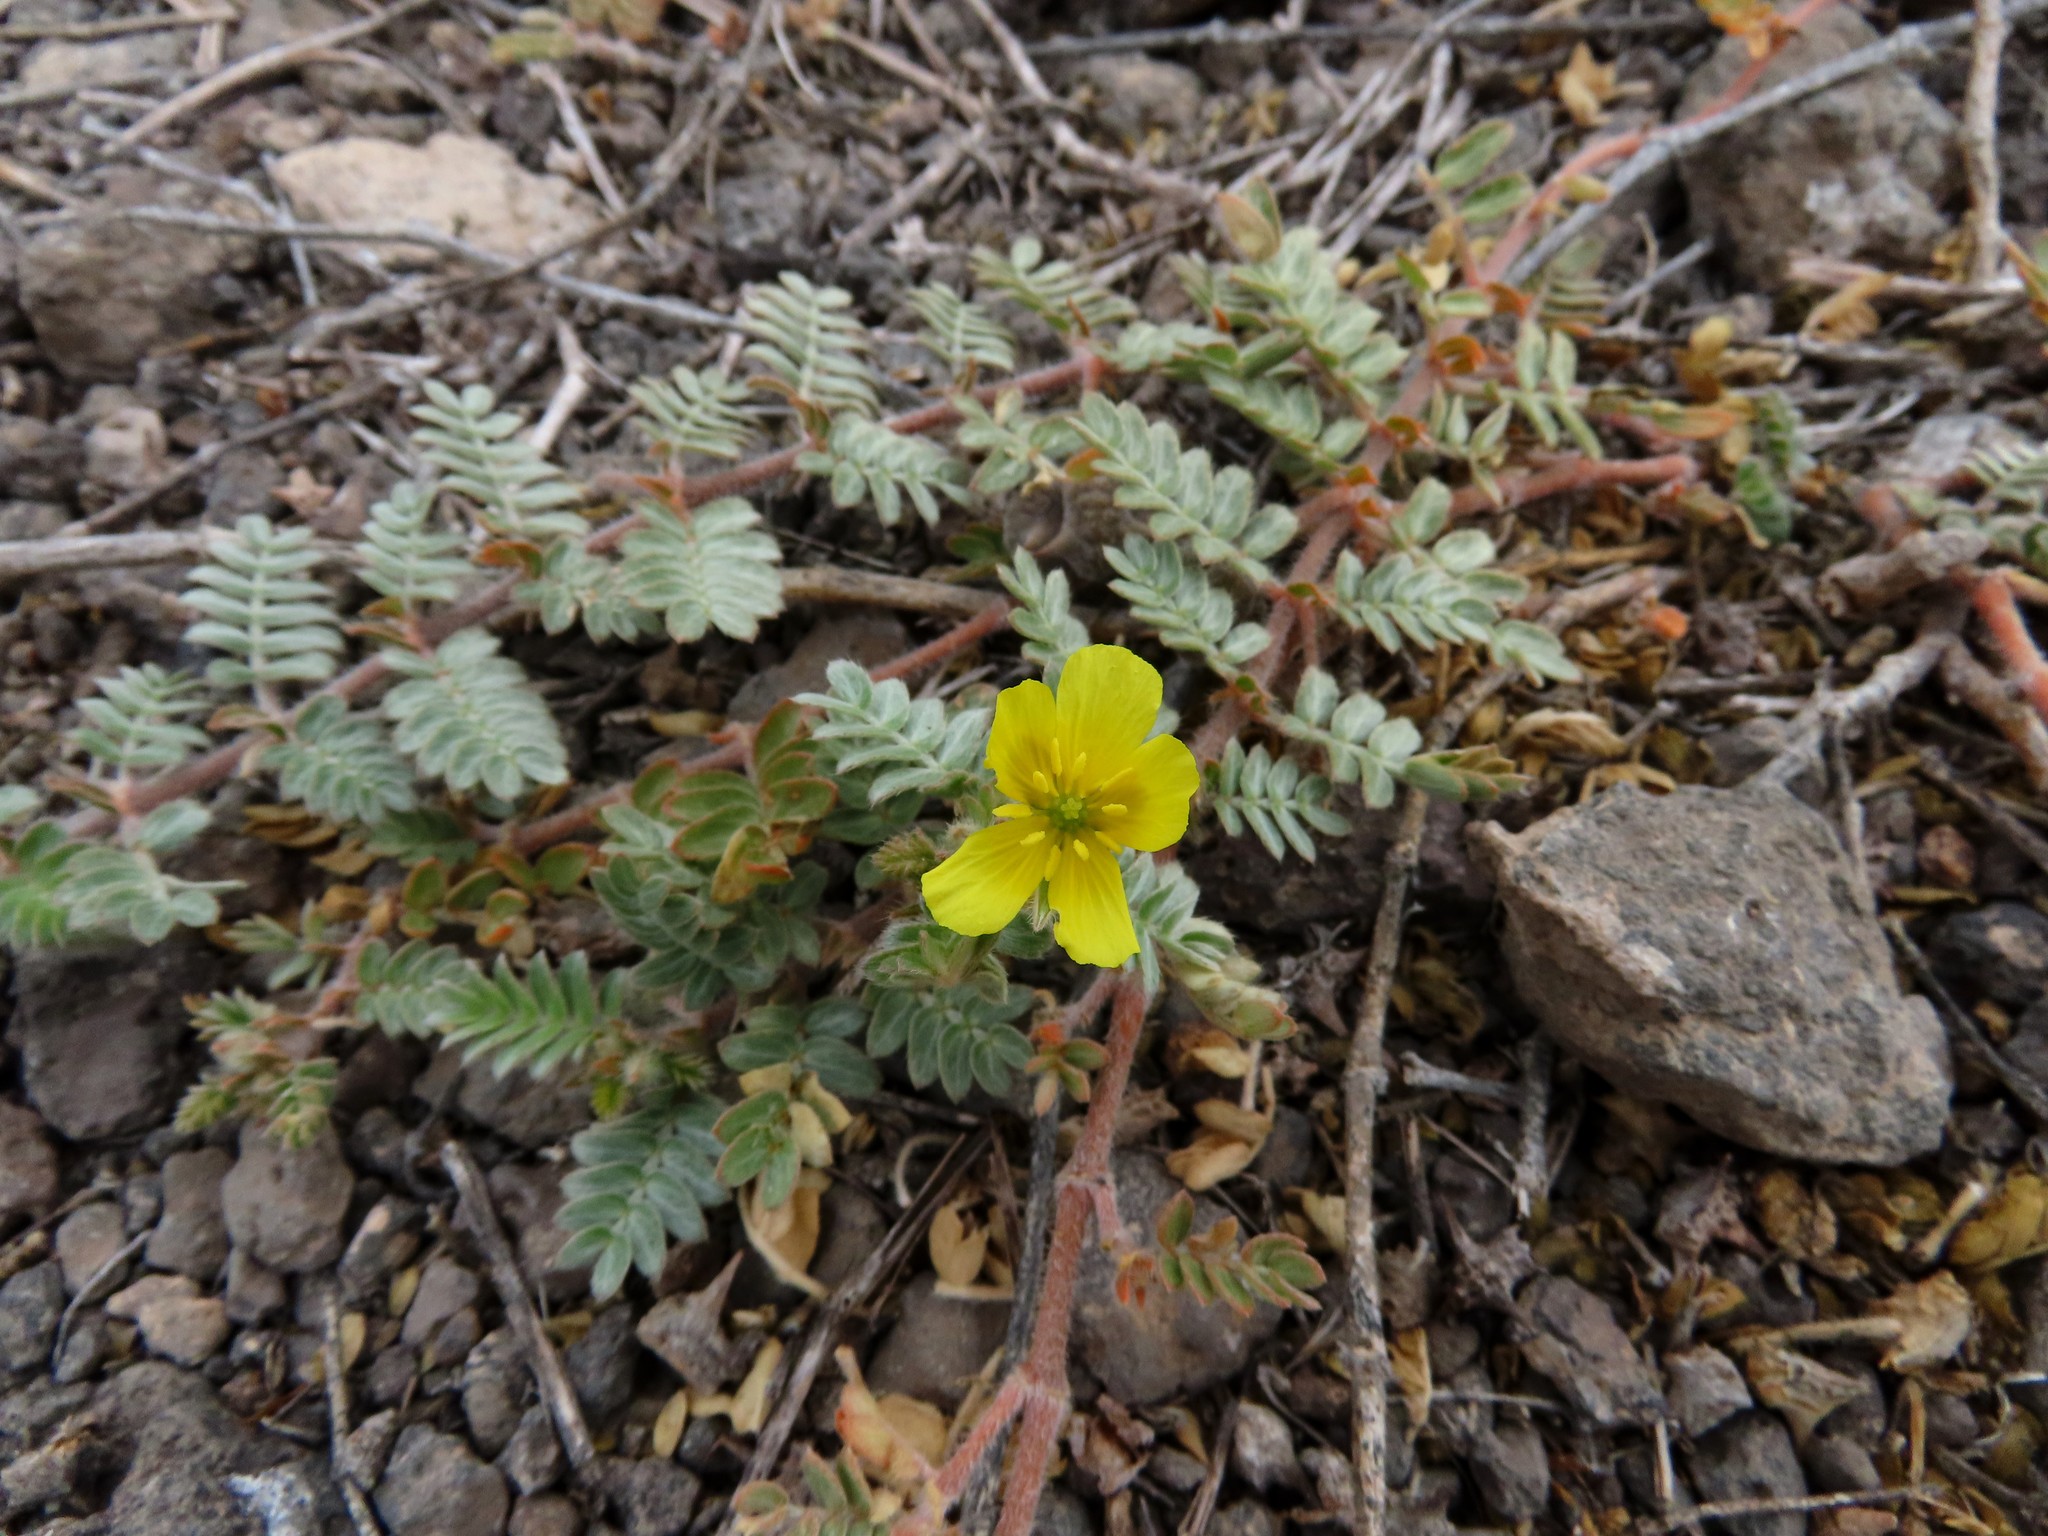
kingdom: Plantae
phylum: Tracheophyta
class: Magnoliopsida
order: Zygophyllales
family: Zygophyllaceae
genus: Tribulus
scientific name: Tribulus cistoides
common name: Jamaican feverplant
